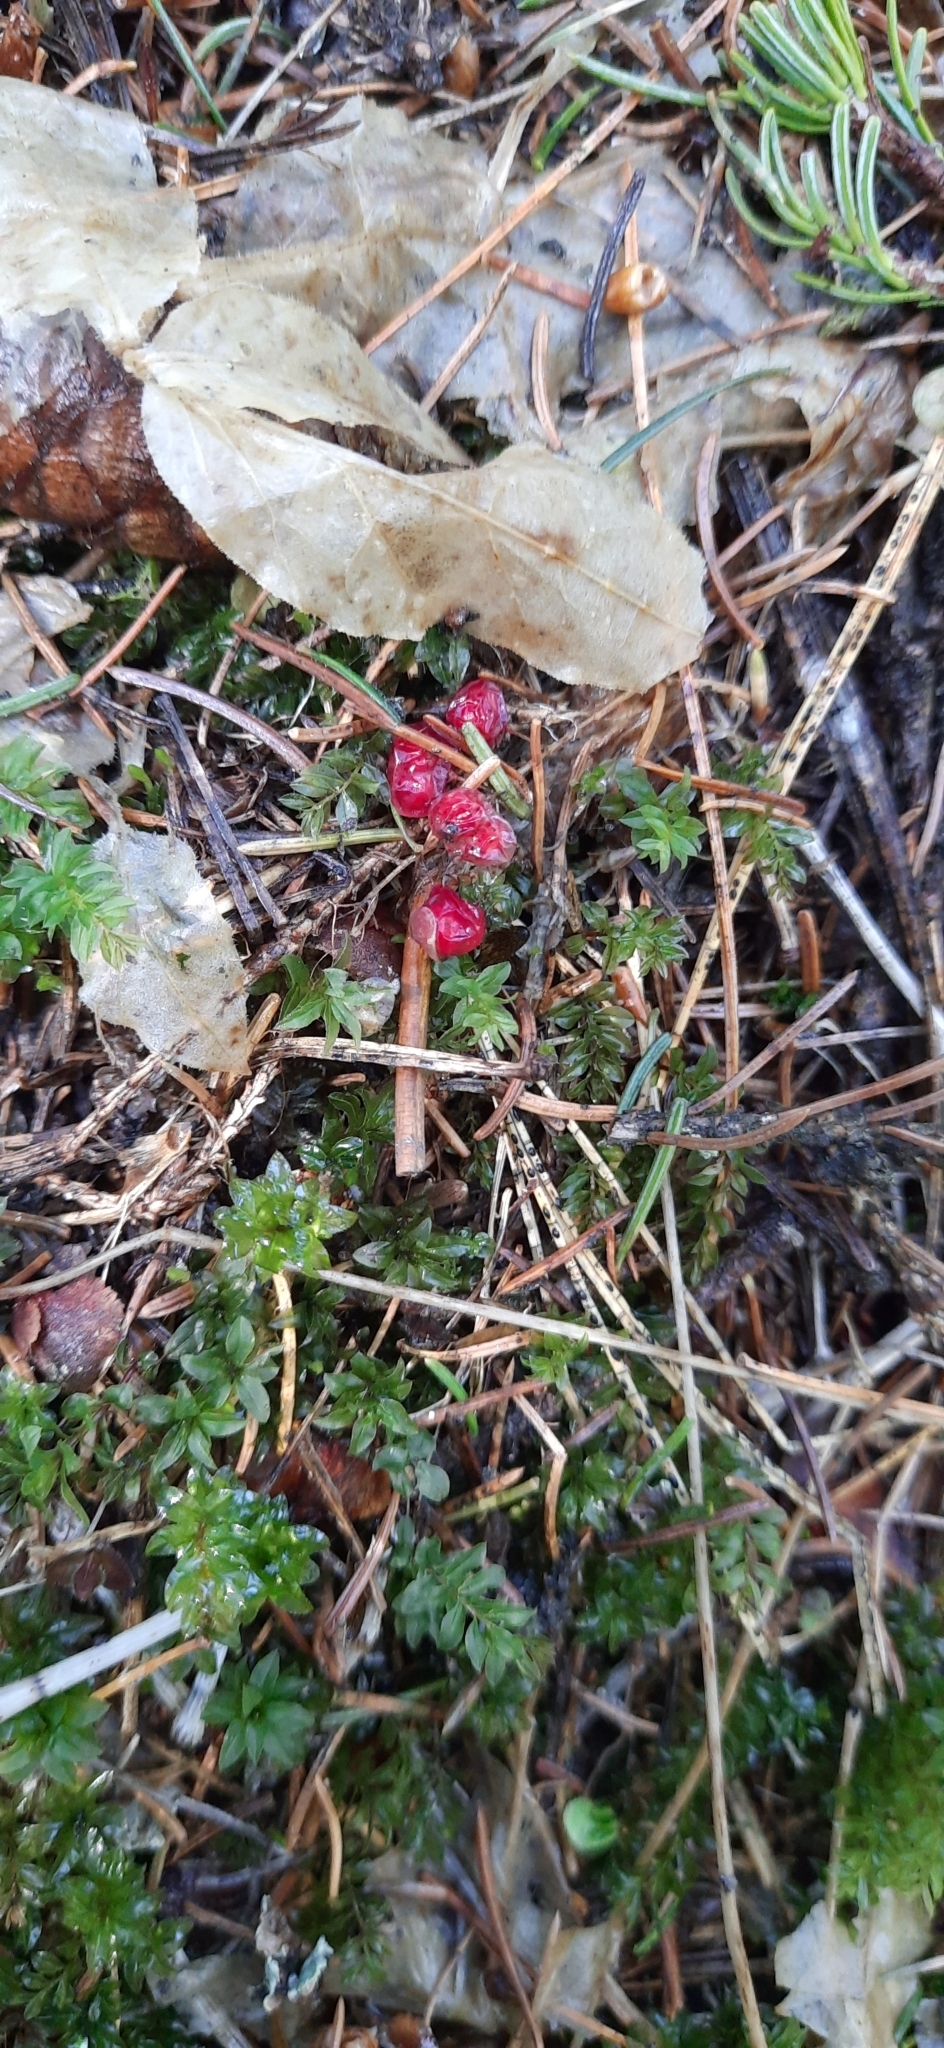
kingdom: Plantae
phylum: Tracheophyta
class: Liliopsida
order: Asparagales
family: Asparagaceae
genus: Maianthemum
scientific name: Maianthemum bifolium
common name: May lily
